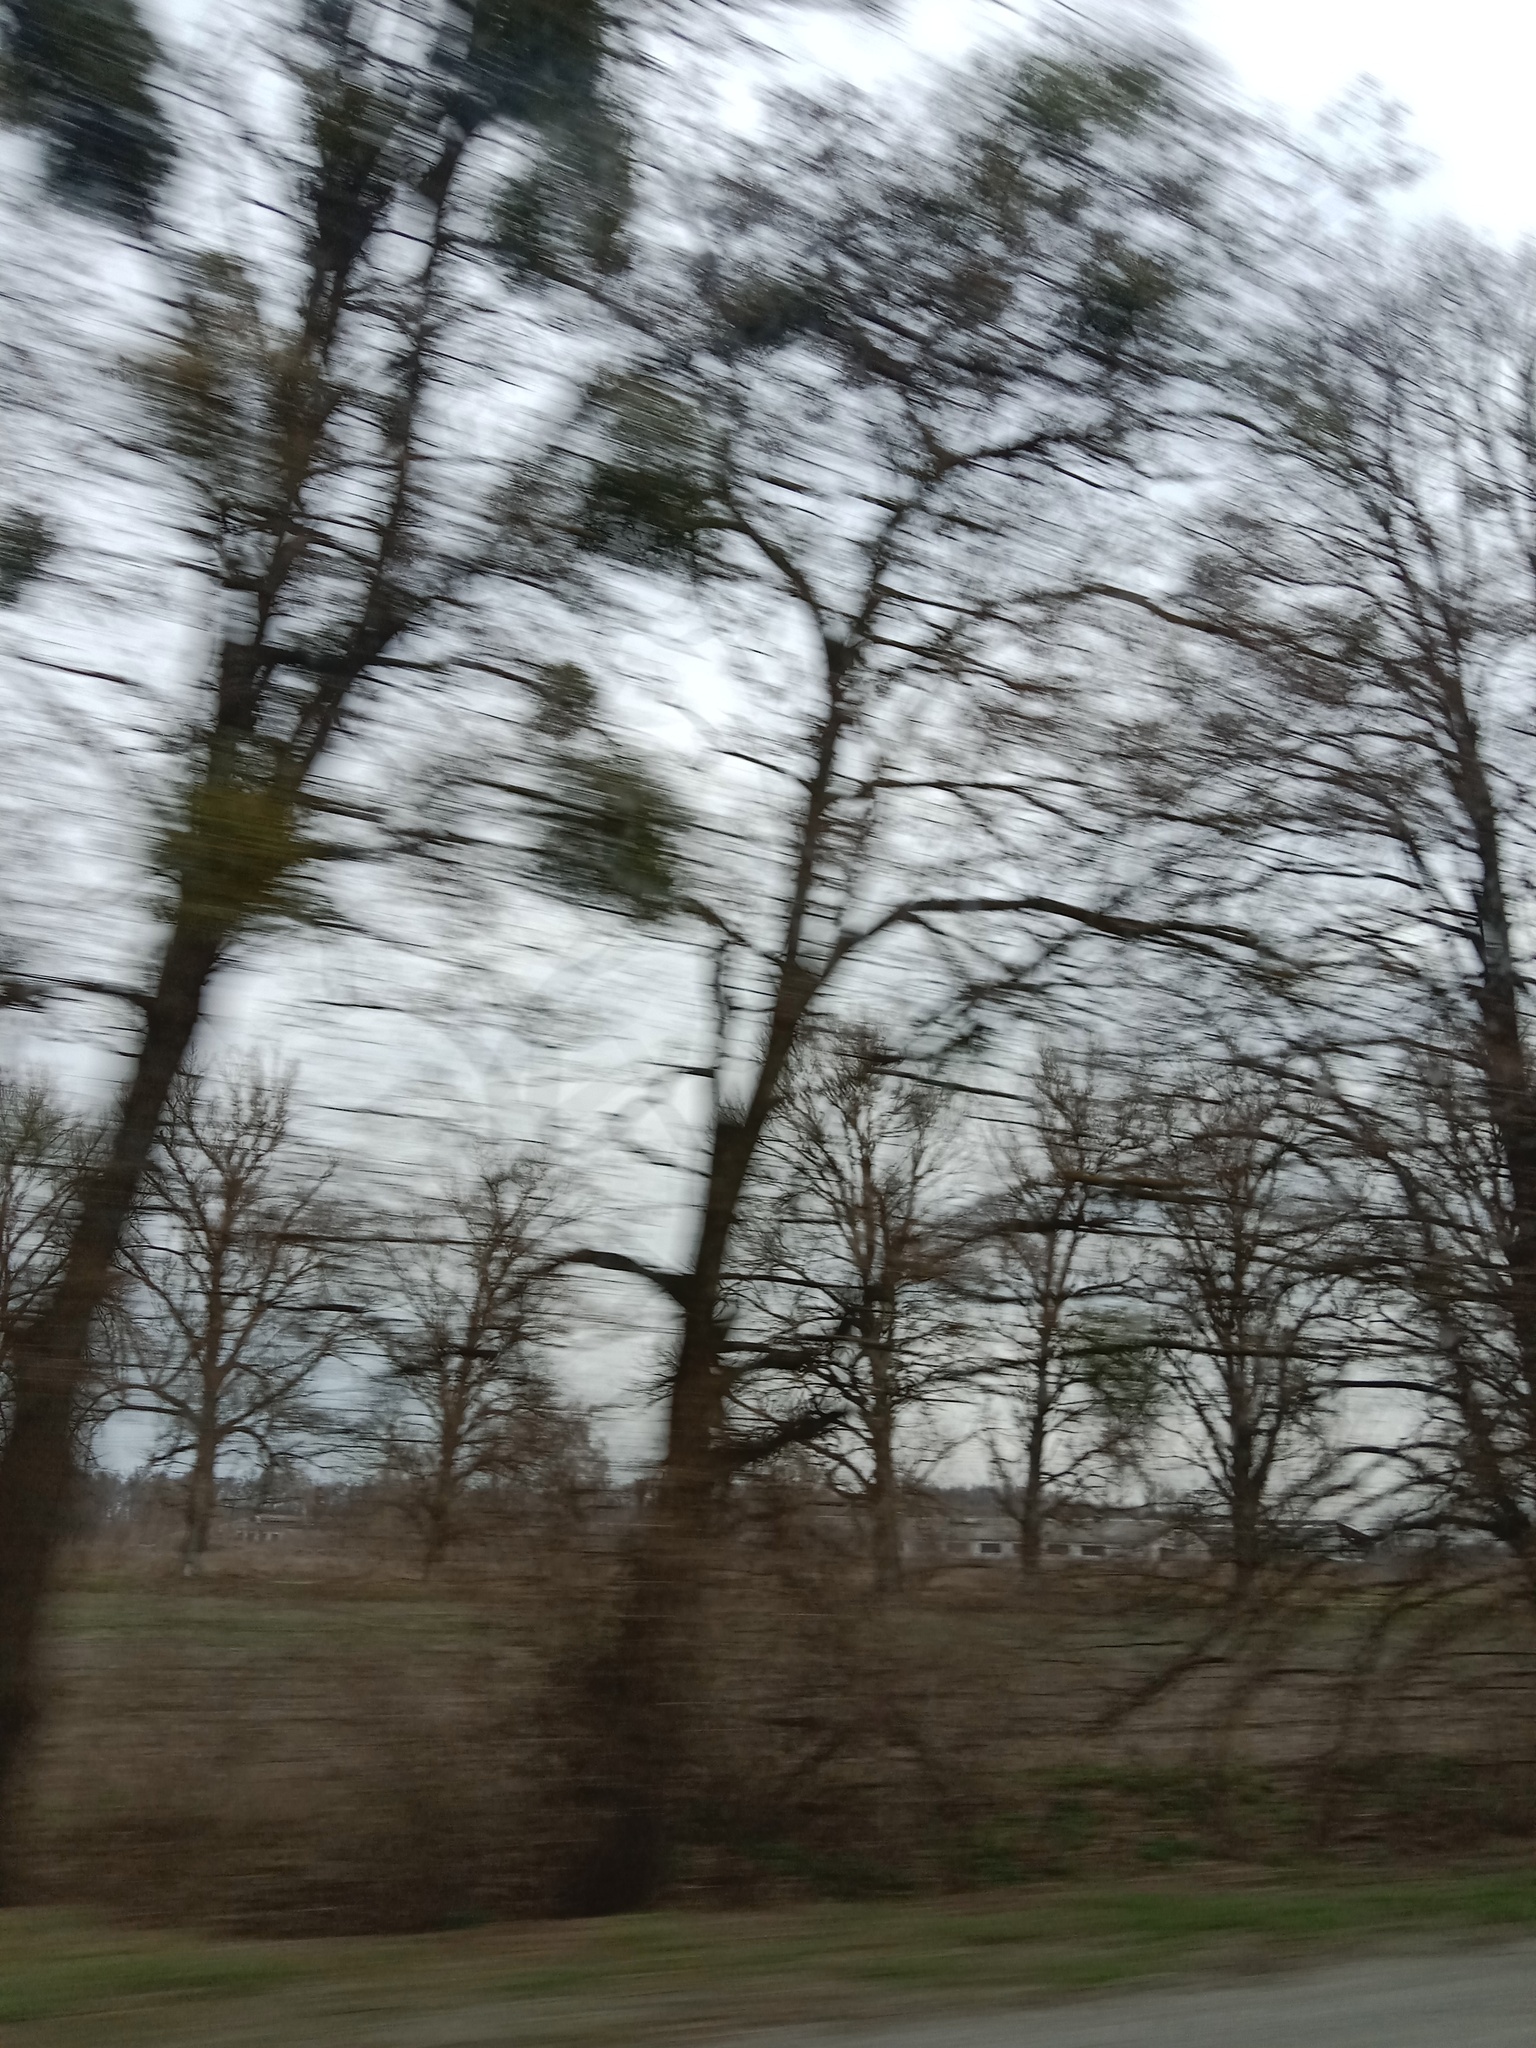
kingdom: Plantae
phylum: Tracheophyta
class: Magnoliopsida
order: Santalales
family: Viscaceae
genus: Viscum
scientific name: Viscum album
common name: Mistletoe
